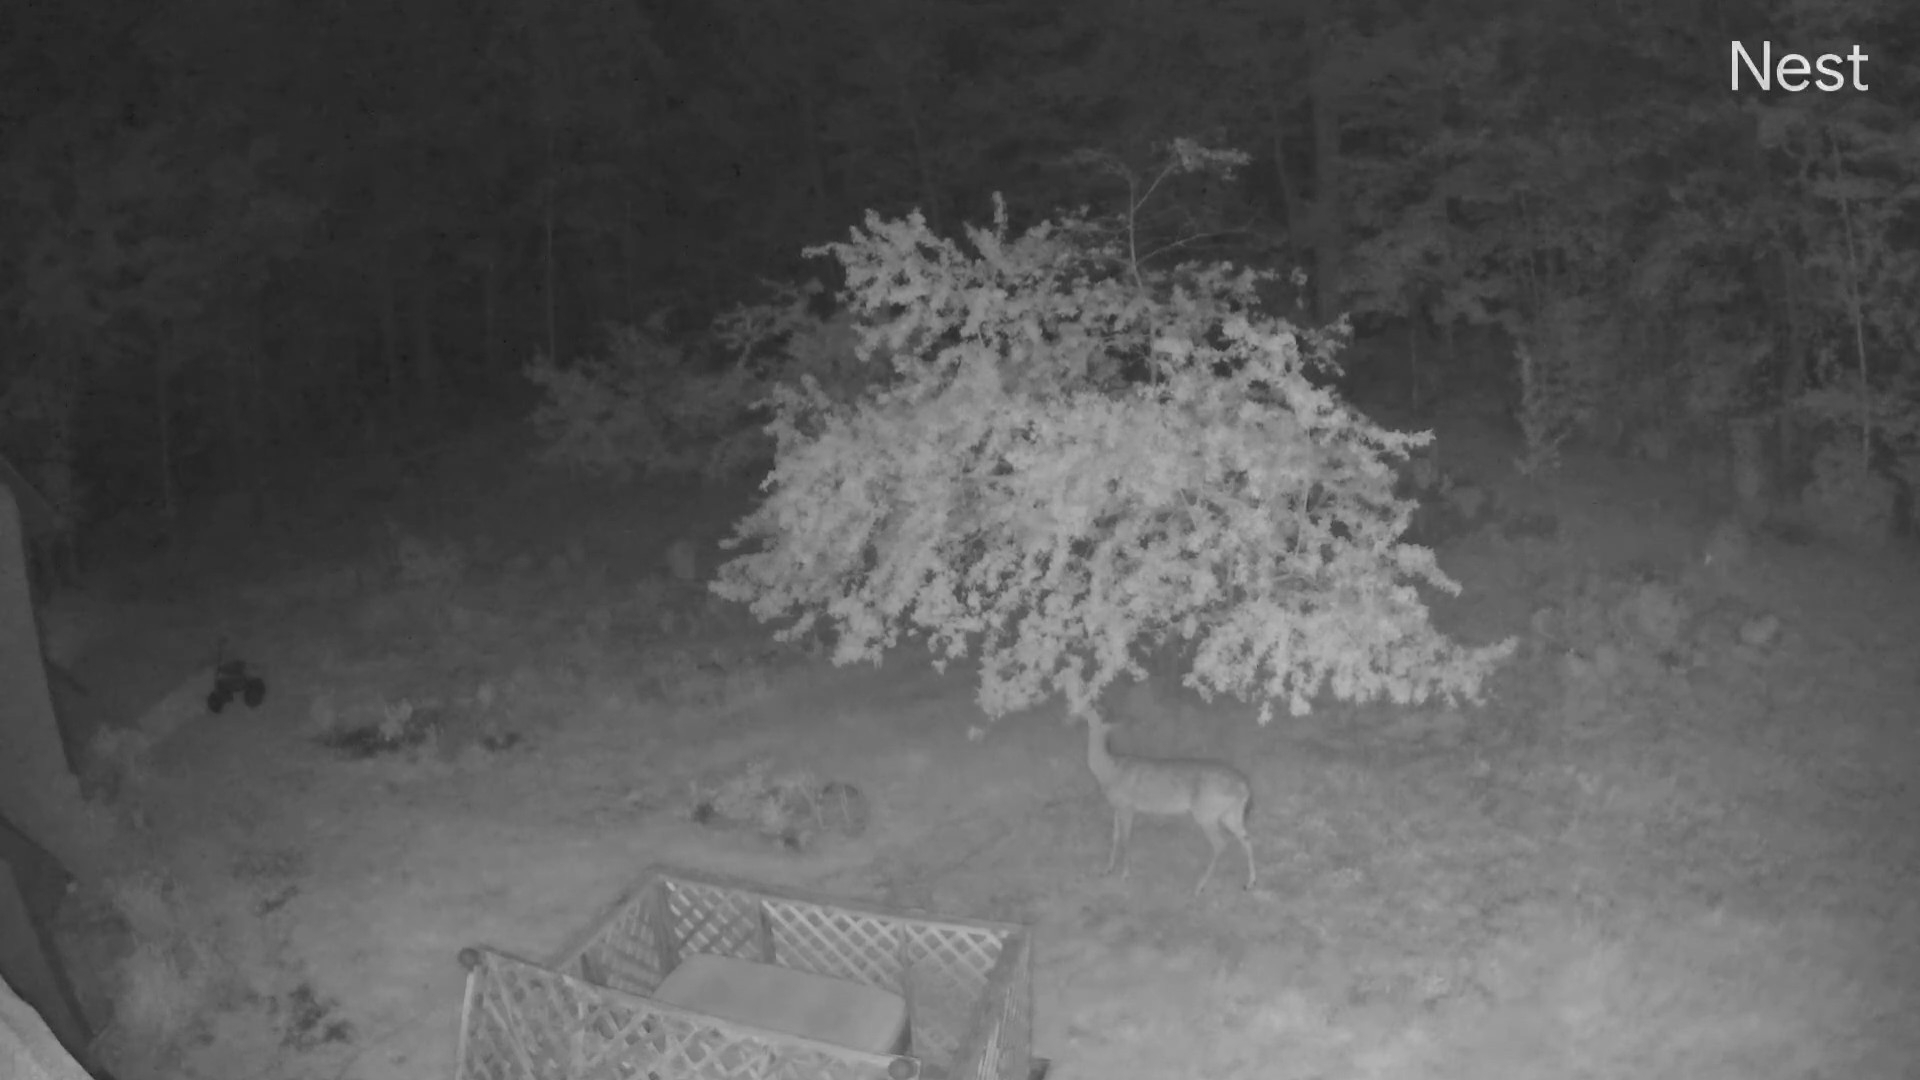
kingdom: Animalia
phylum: Chordata
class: Mammalia
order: Artiodactyla
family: Cervidae
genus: Odocoileus
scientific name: Odocoileus virginianus
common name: White-tailed deer
